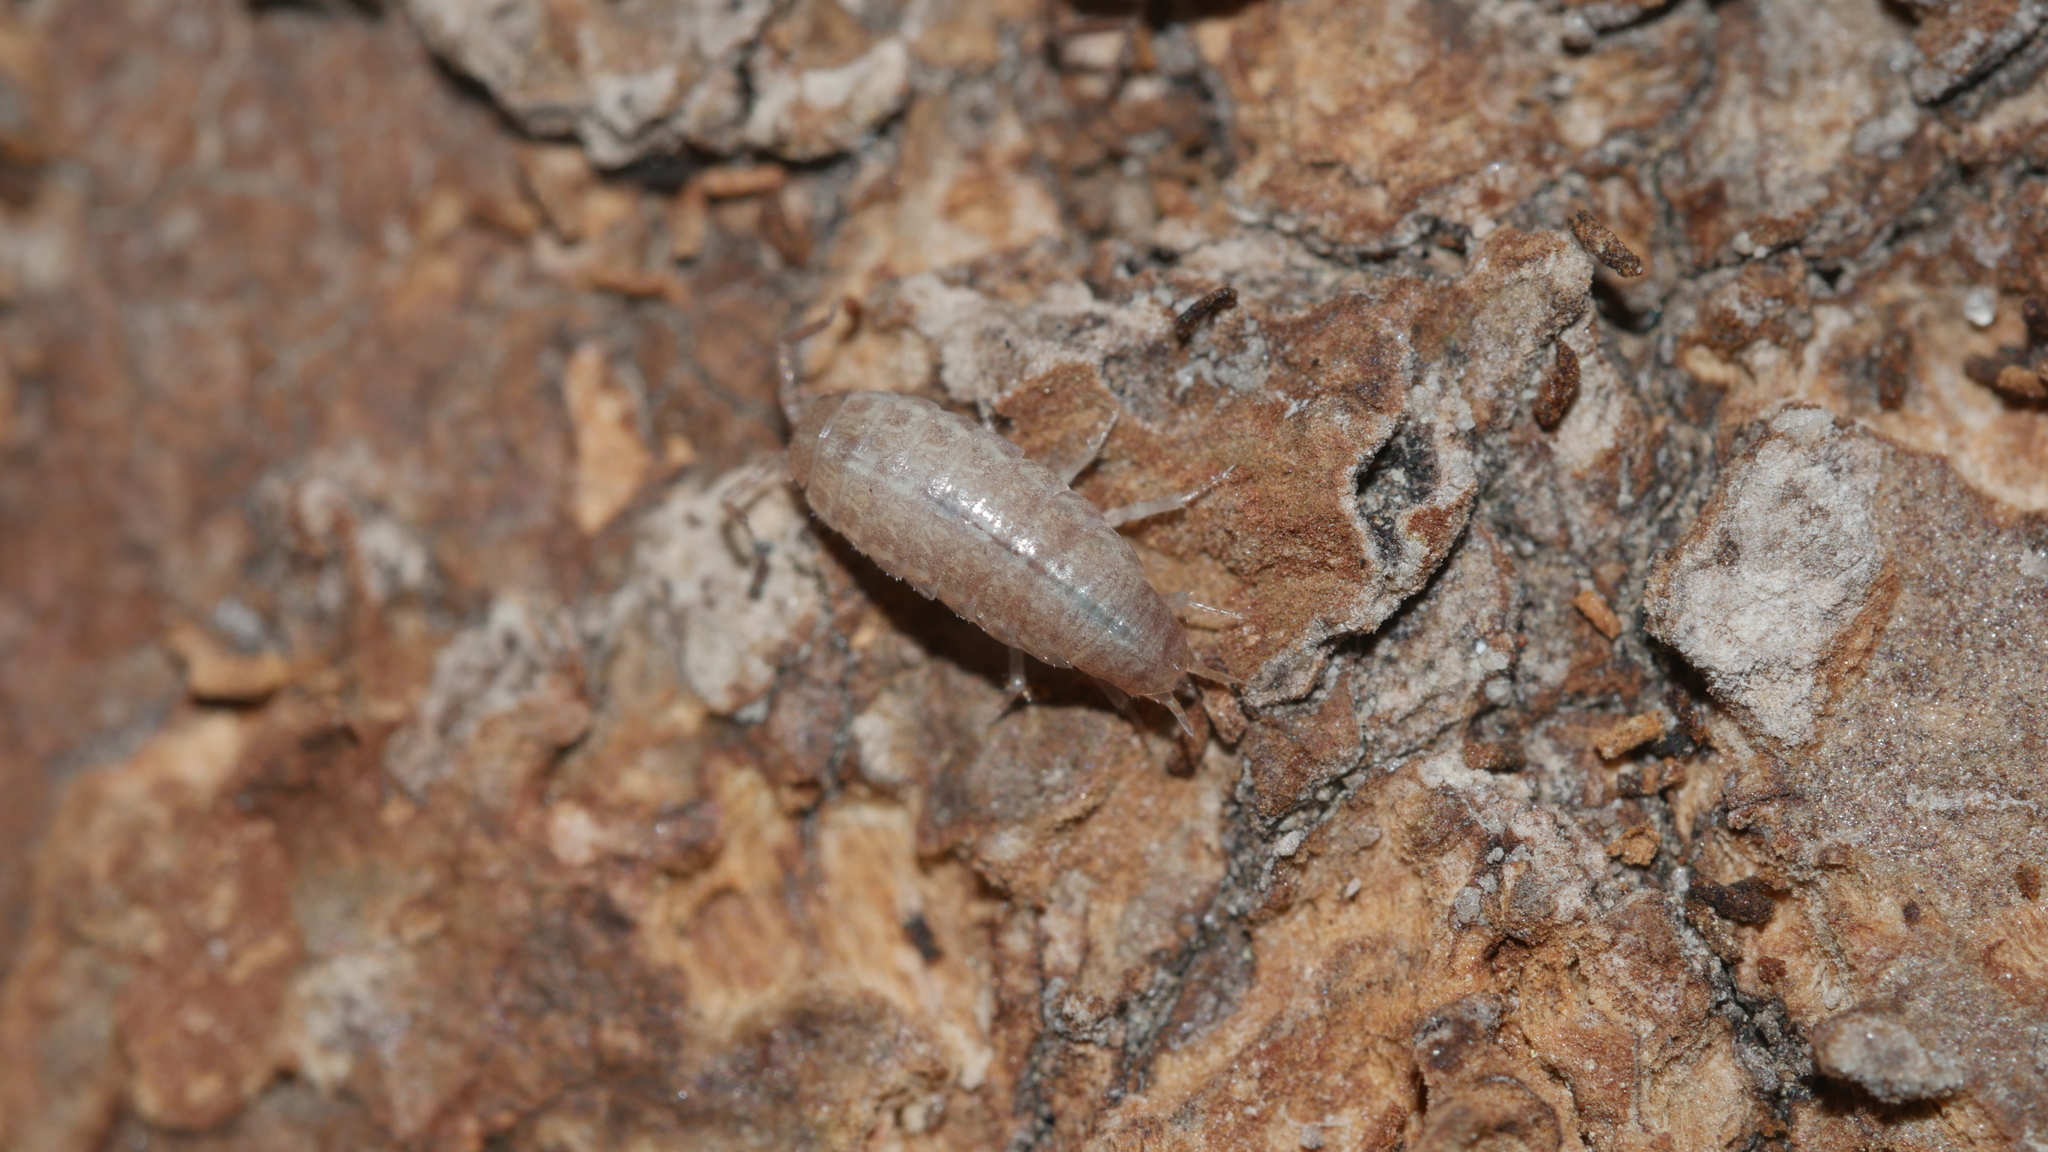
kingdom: Animalia
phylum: Arthropoda
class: Malacostraca
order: Isopoda
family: Philosciidae
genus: Chaetophiloscia
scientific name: Chaetophiloscia sicula
